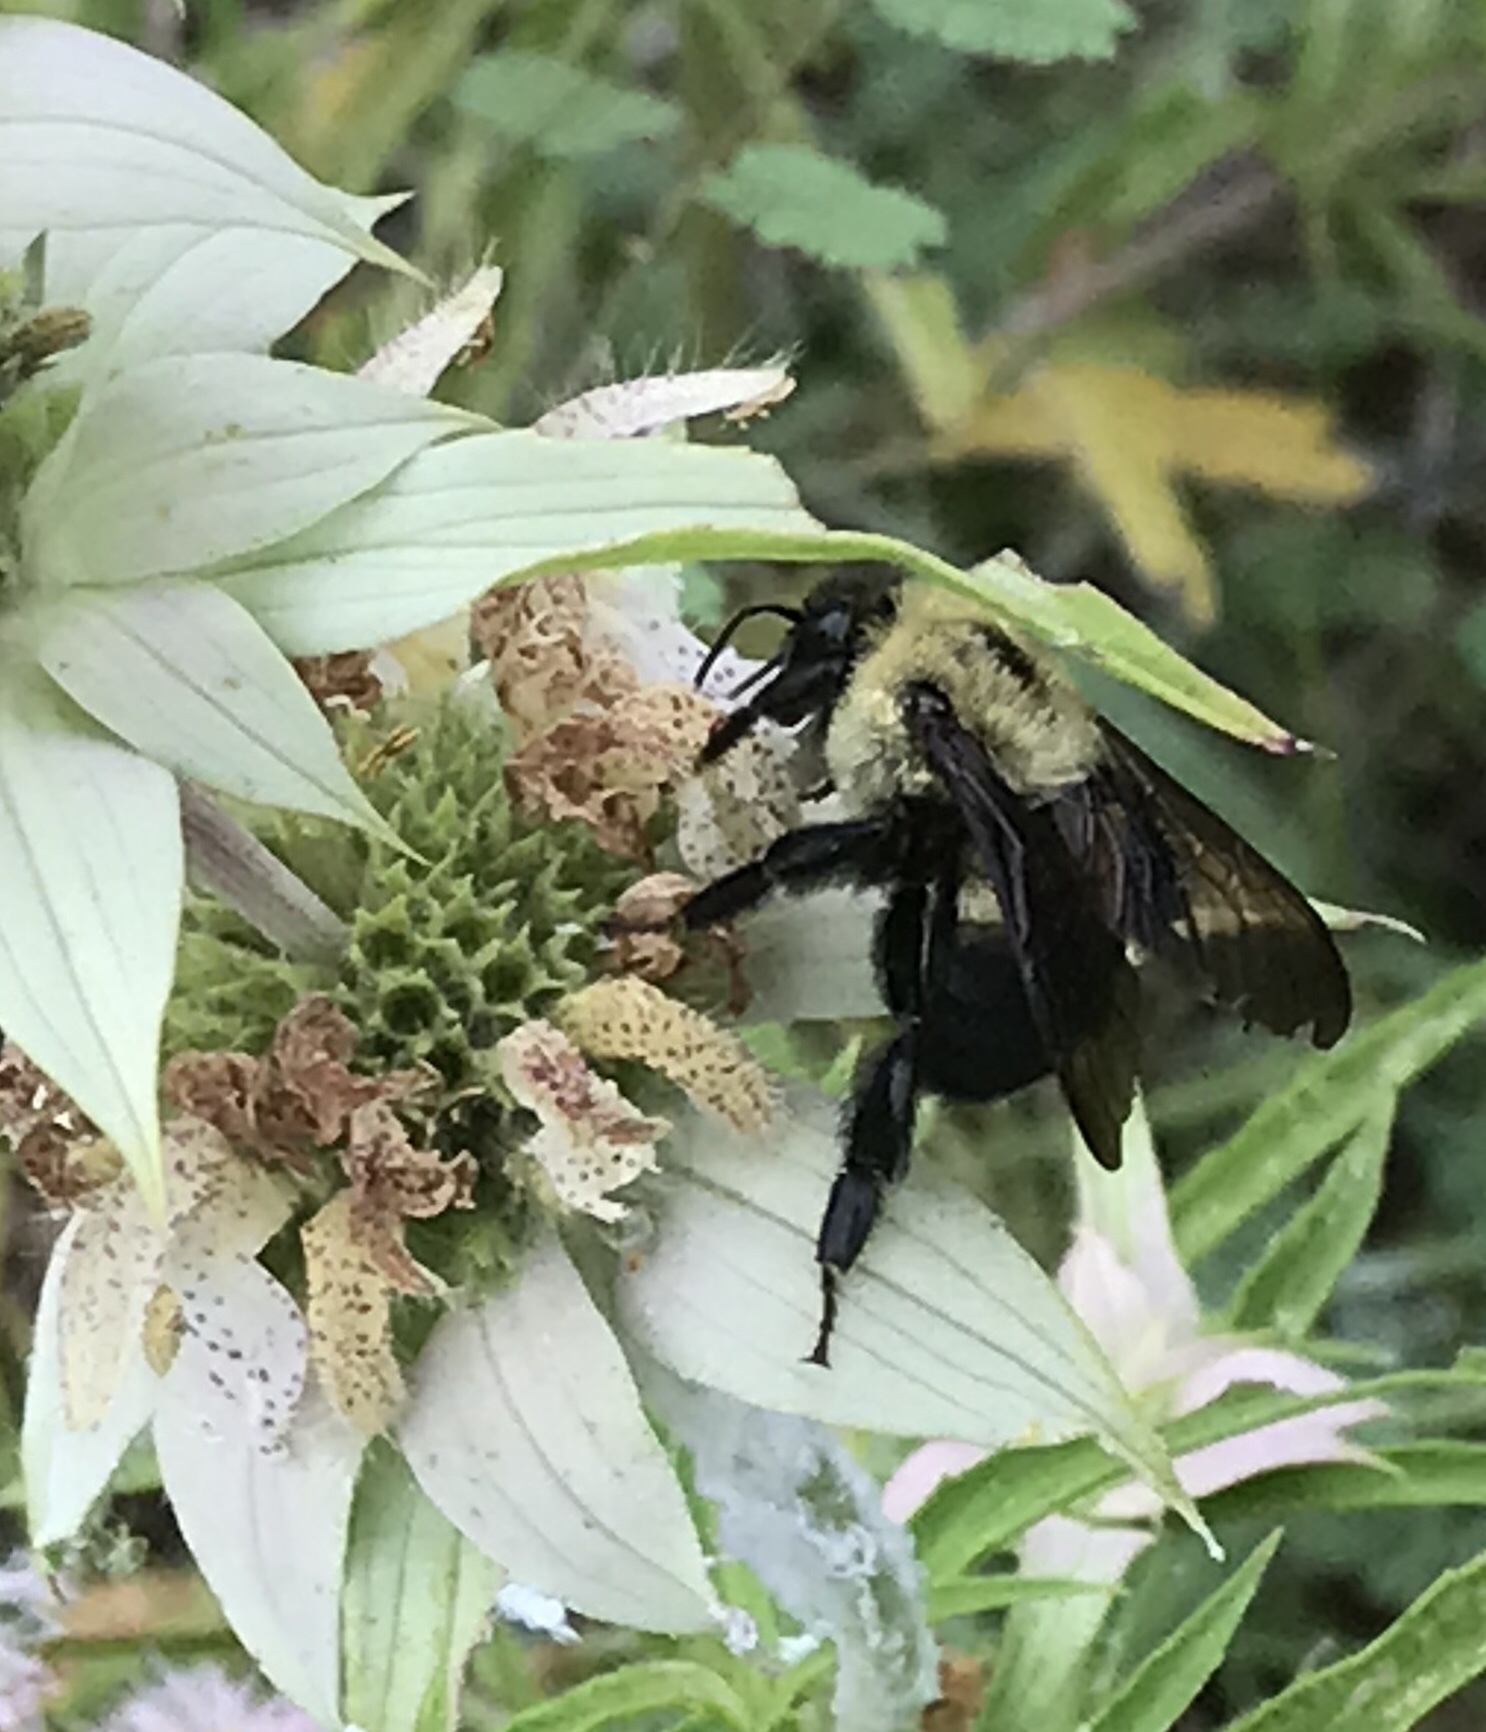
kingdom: Animalia
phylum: Arthropoda
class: Insecta
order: Hymenoptera
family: Apidae
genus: Bombus
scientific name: Bombus griseocollis
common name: Brown-belted bumble bee
